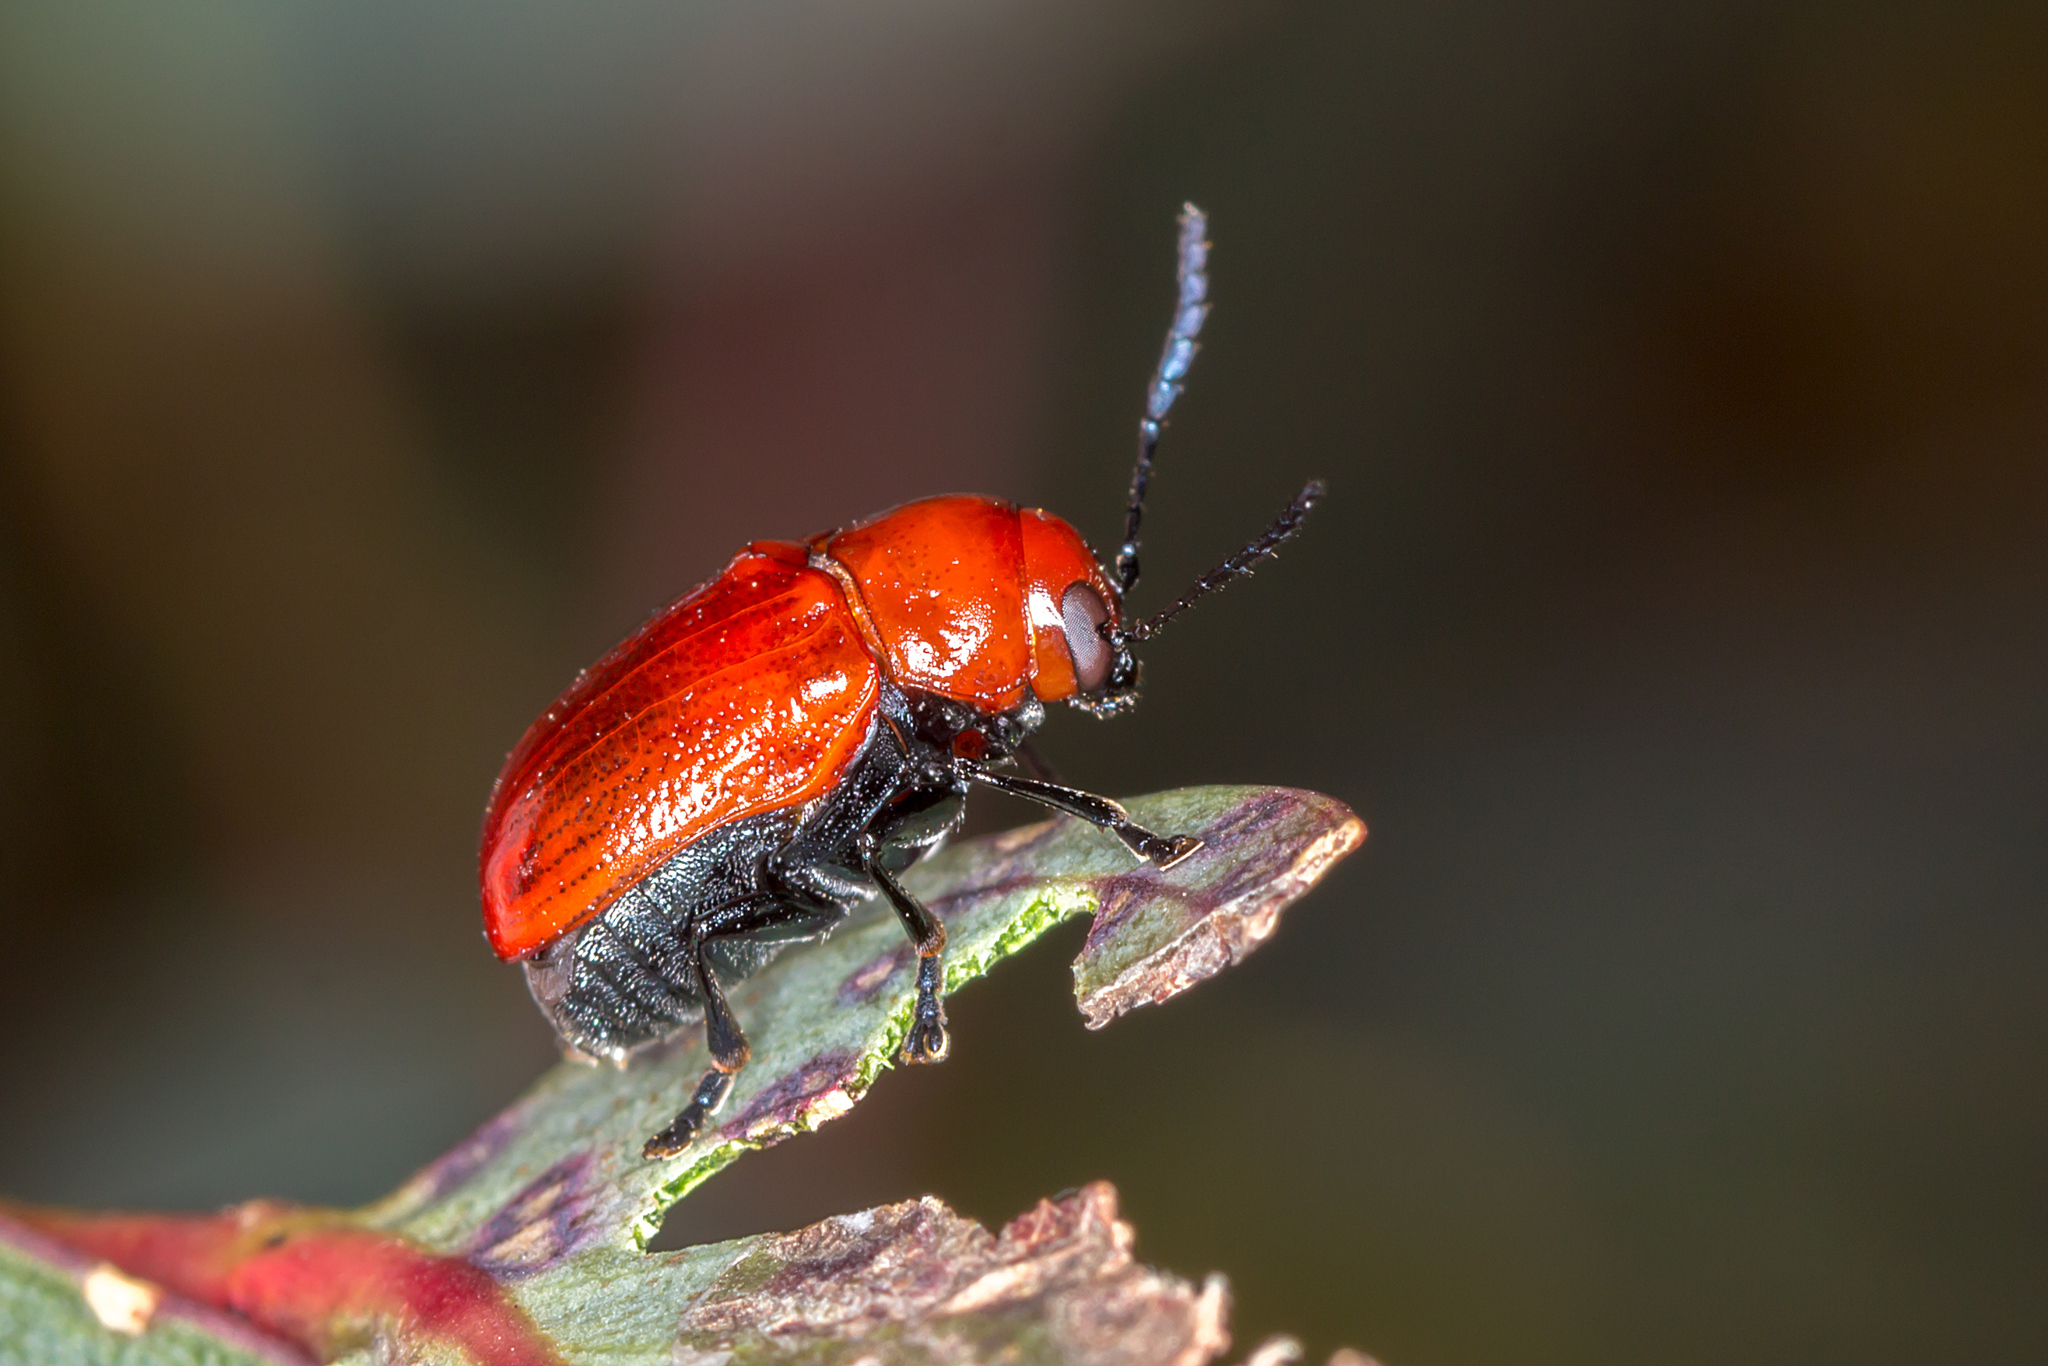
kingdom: Animalia
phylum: Arthropoda
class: Insecta
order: Coleoptera
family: Chrysomelidae
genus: Aporocera
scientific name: Aporocera
